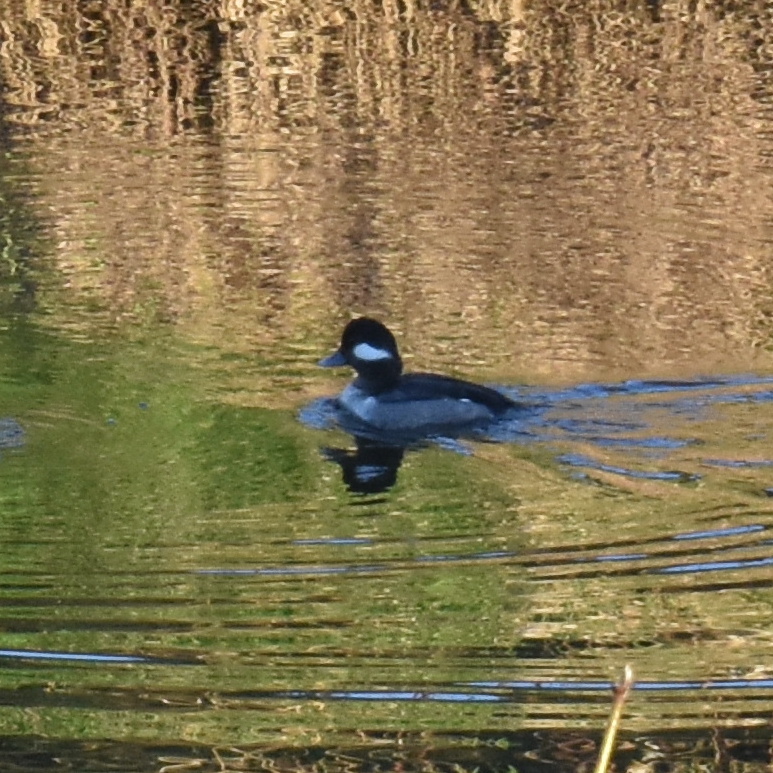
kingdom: Animalia
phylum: Chordata
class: Aves
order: Anseriformes
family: Anatidae
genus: Bucephala
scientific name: Bucephala albeola
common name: Bufflehead
